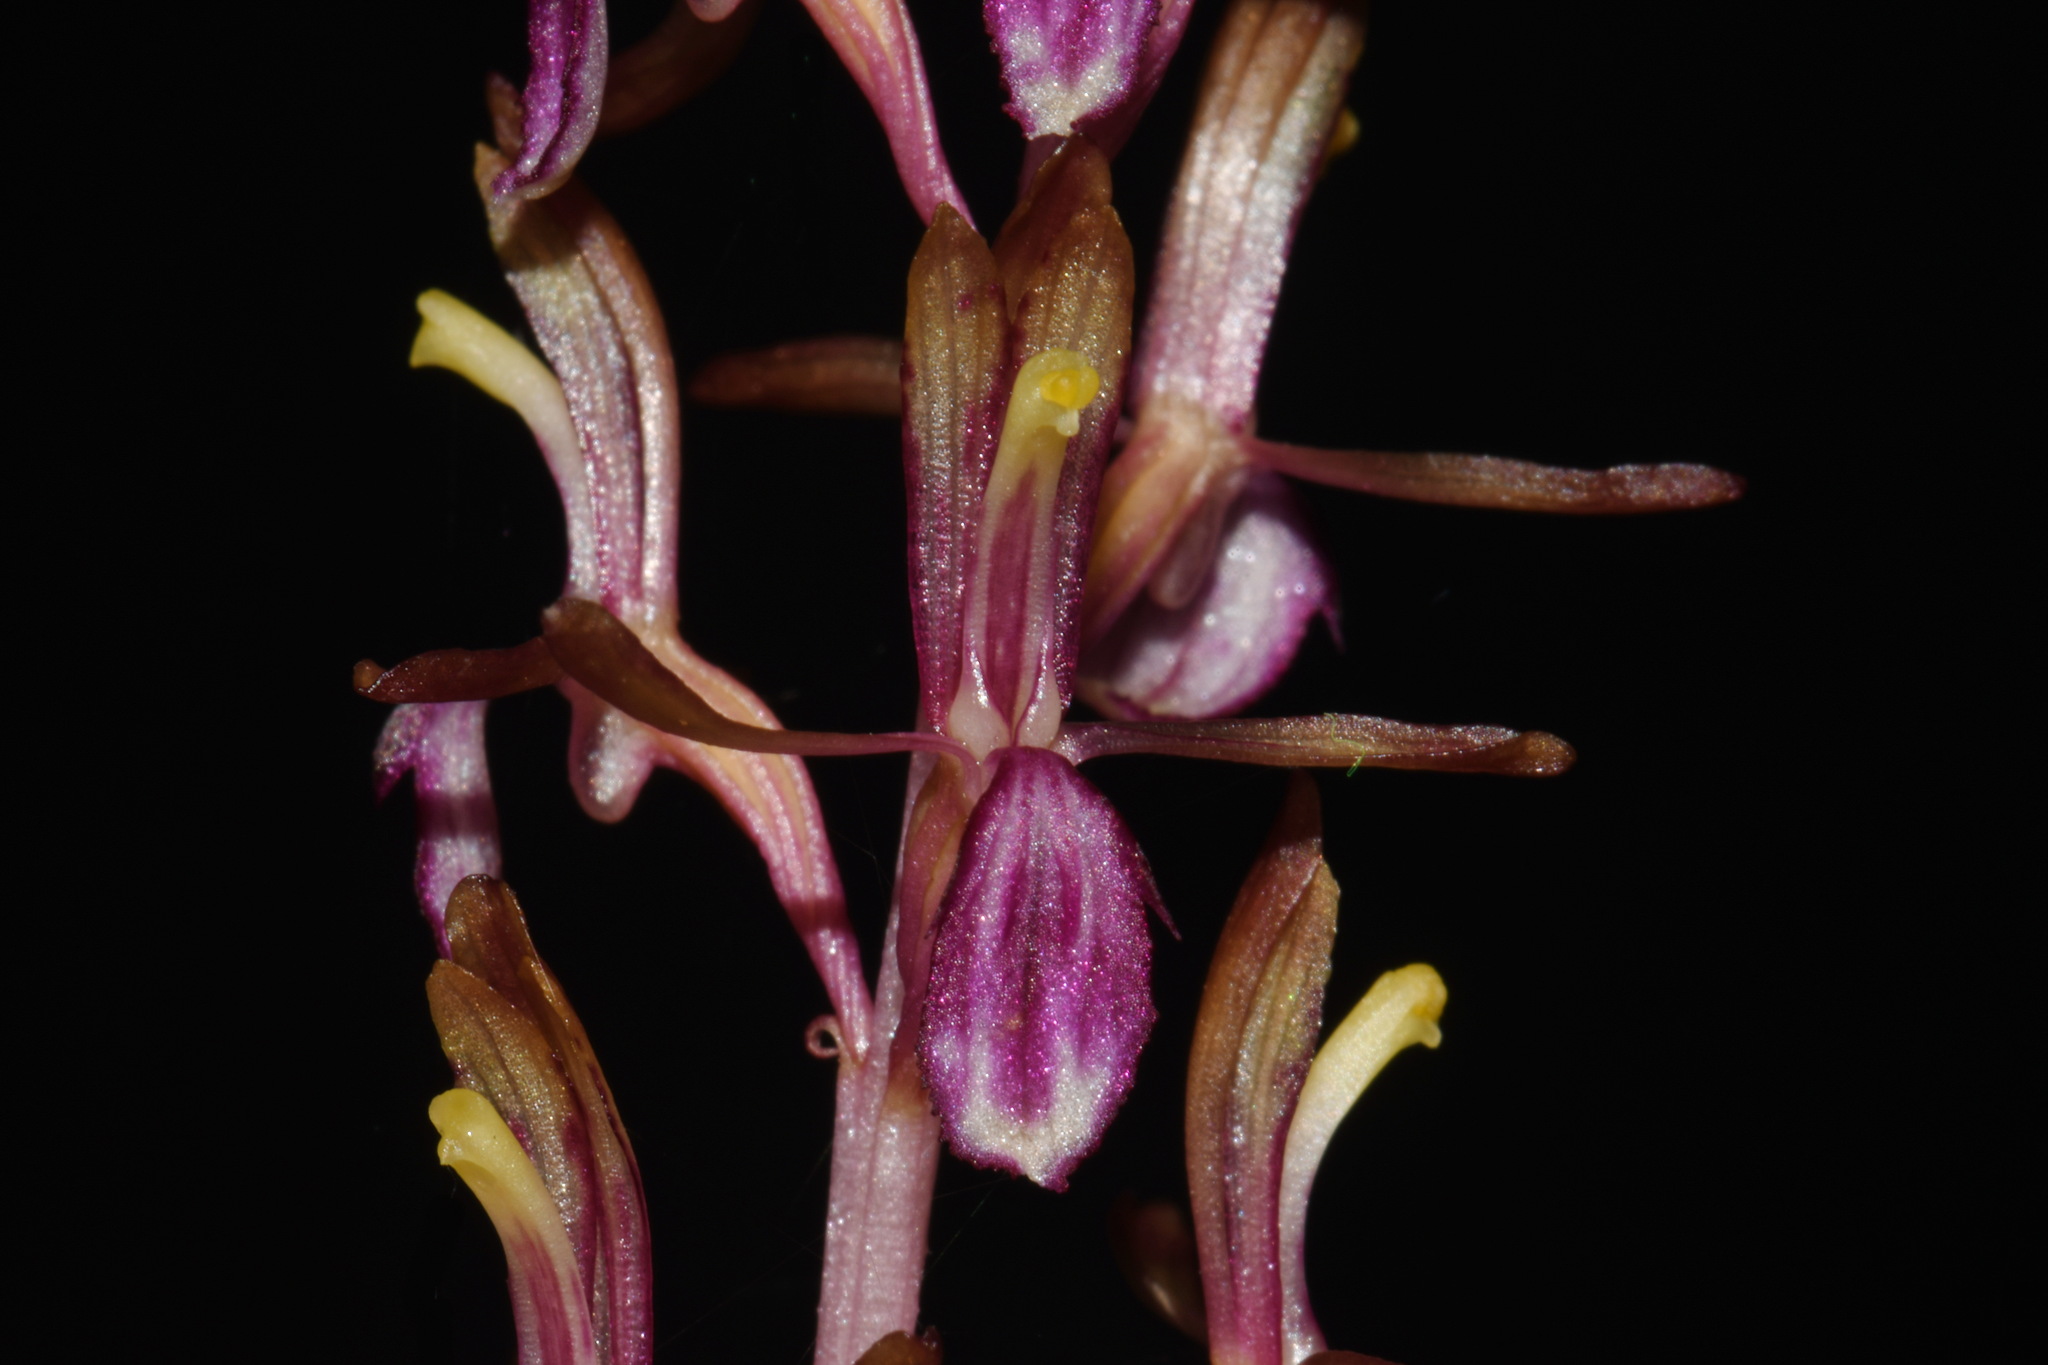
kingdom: Plantae
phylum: Tracheophyta
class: Liliopsida
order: Asparagales
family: Orchidaceae
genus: Corallorhiza
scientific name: Corallorhiza mertensiana
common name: Pacific coralroot
